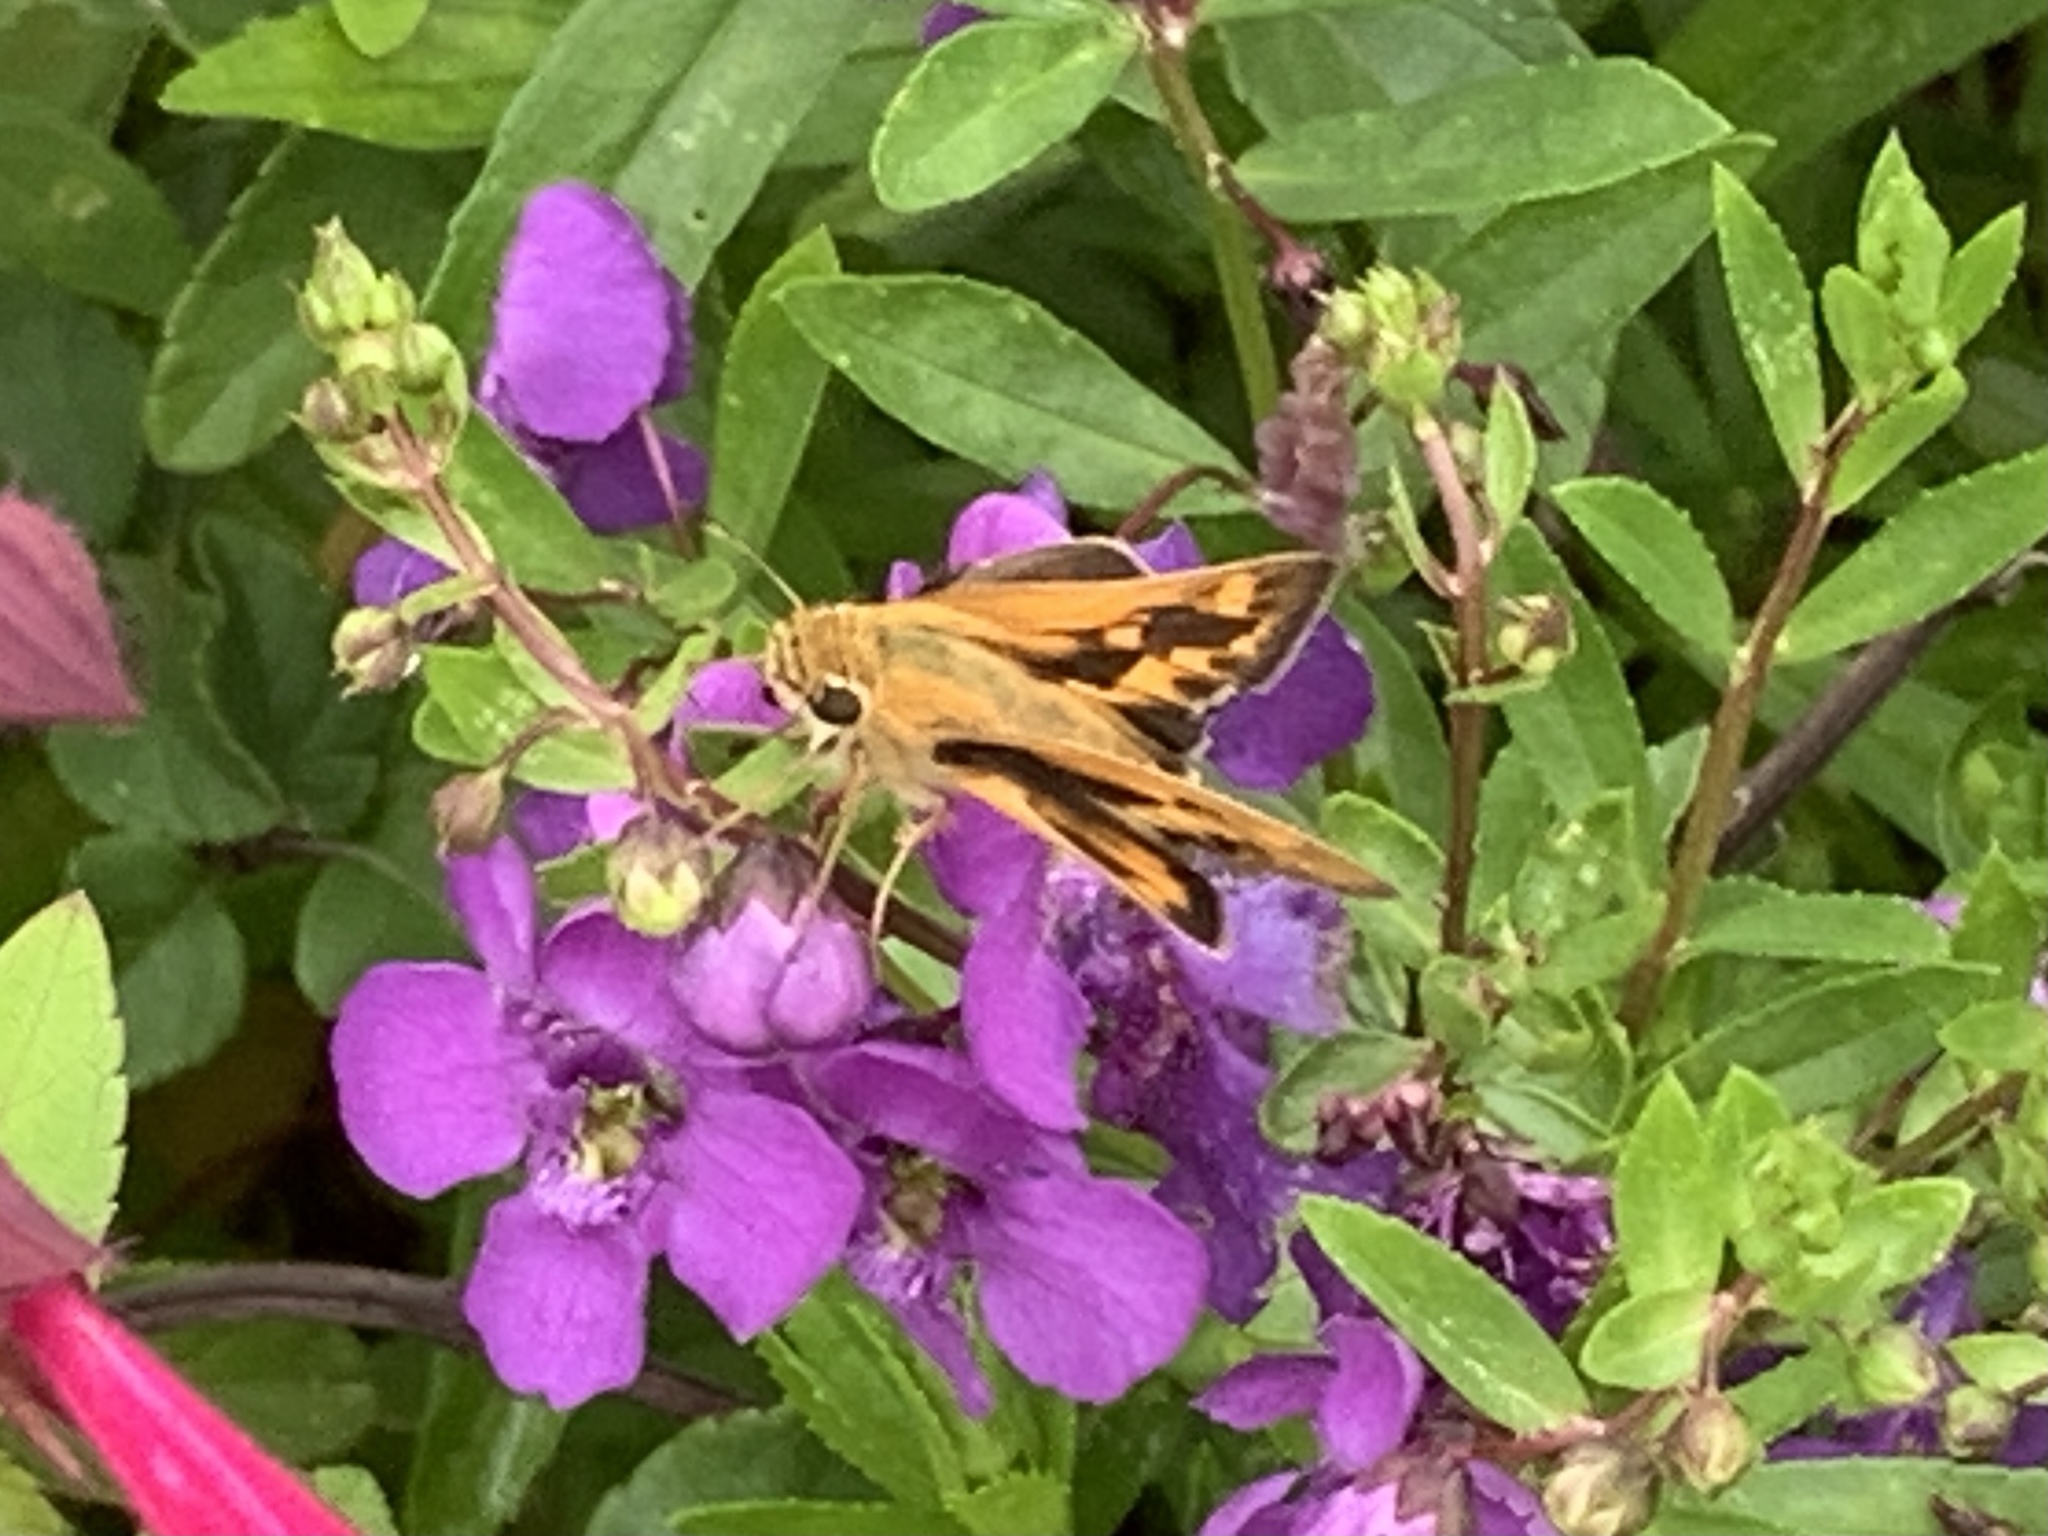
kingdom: Animalia
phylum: Arthropoda
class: Insecta
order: Lepidoptera
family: Hesperiidae
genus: Hylephila
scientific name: Hylephila phyleus
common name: Fiery skipper
